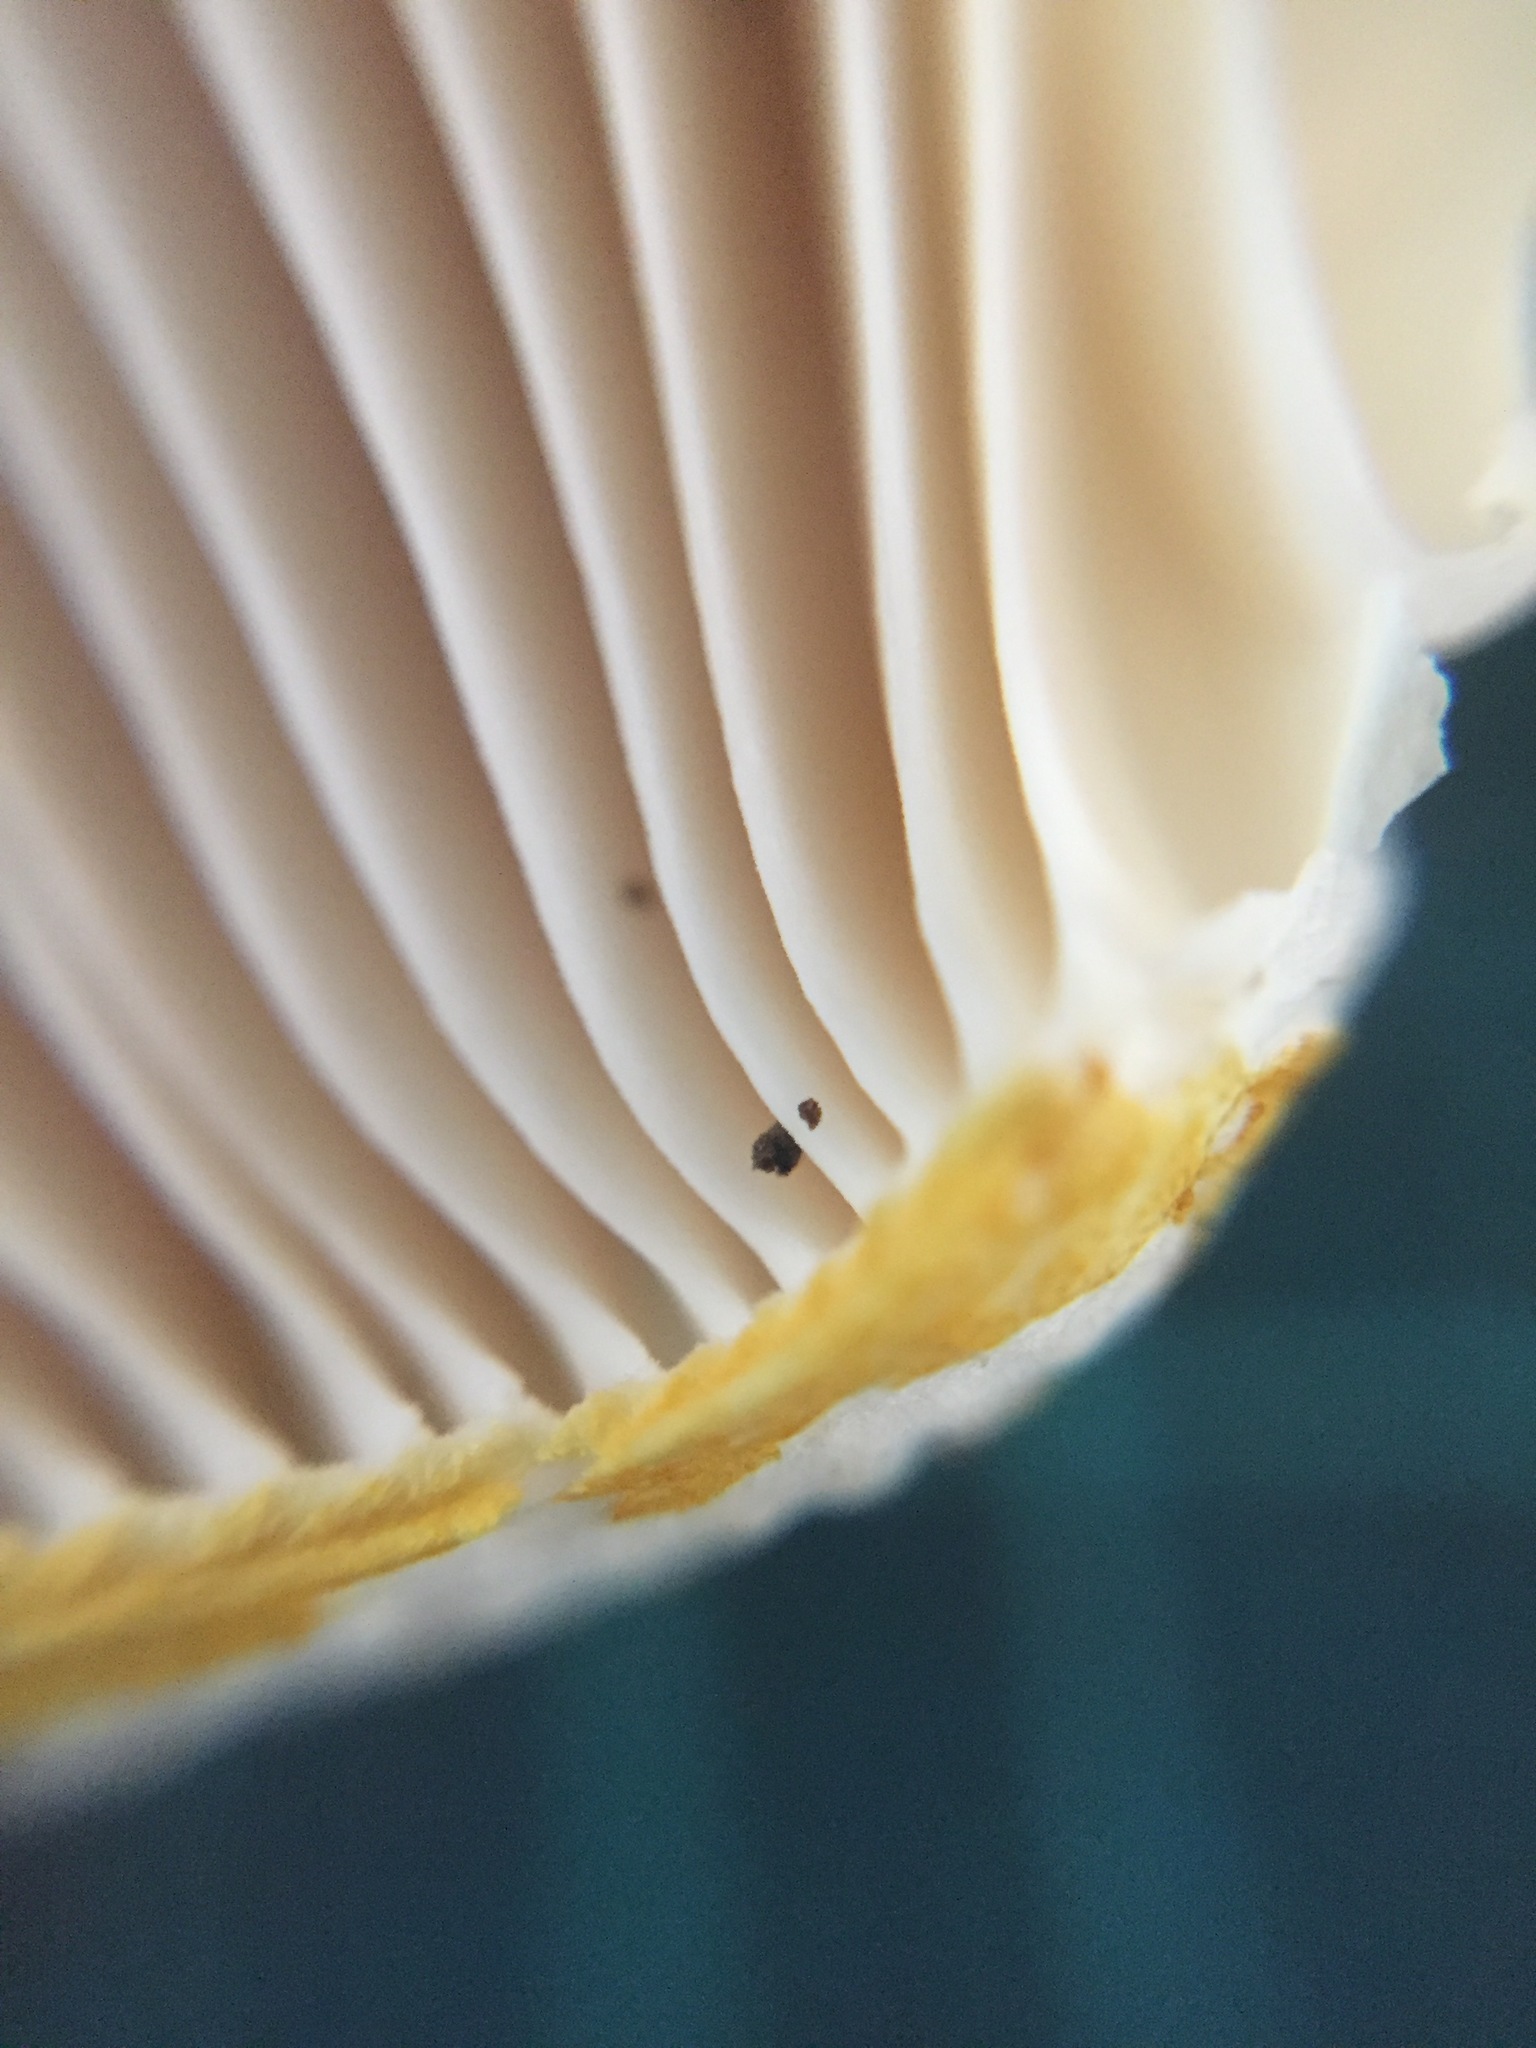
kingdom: Fungi
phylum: Basidiomycota
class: Agaricomycetes
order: Russulales
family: Russulaceae
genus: Russula
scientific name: Russula flavida
